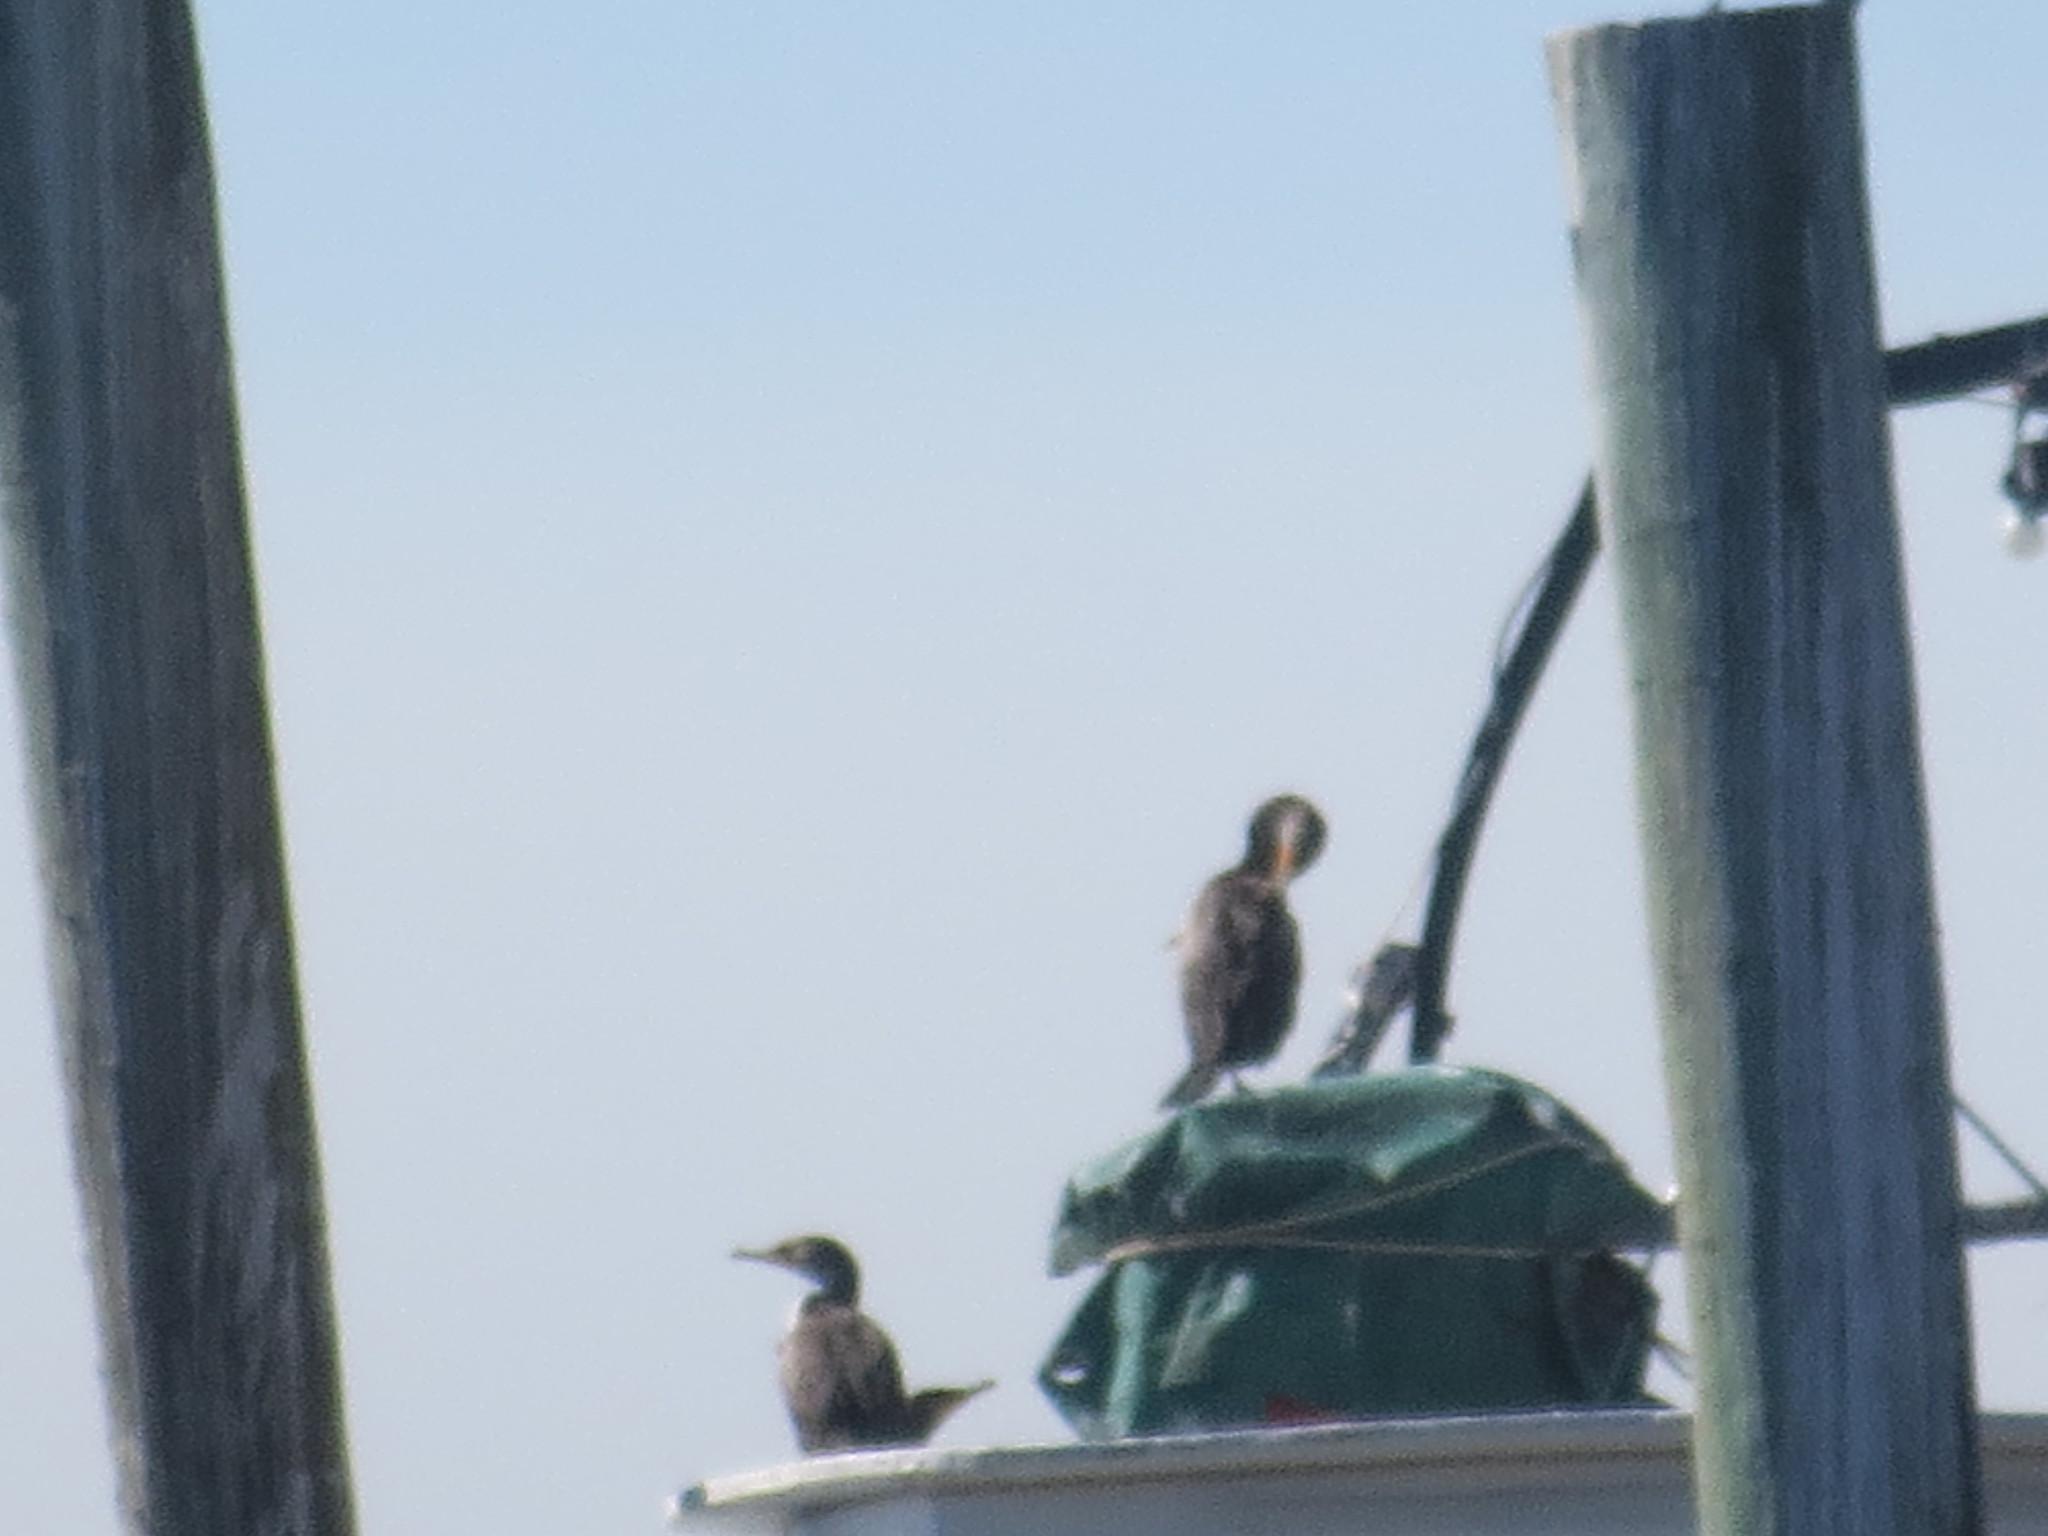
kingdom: Animalia
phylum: Chordata
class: Aves
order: Suliformes
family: Phalacrocoracidae
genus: Phalacrocorax
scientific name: Phalacrocorax auritus
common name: Double-crested cormorant
